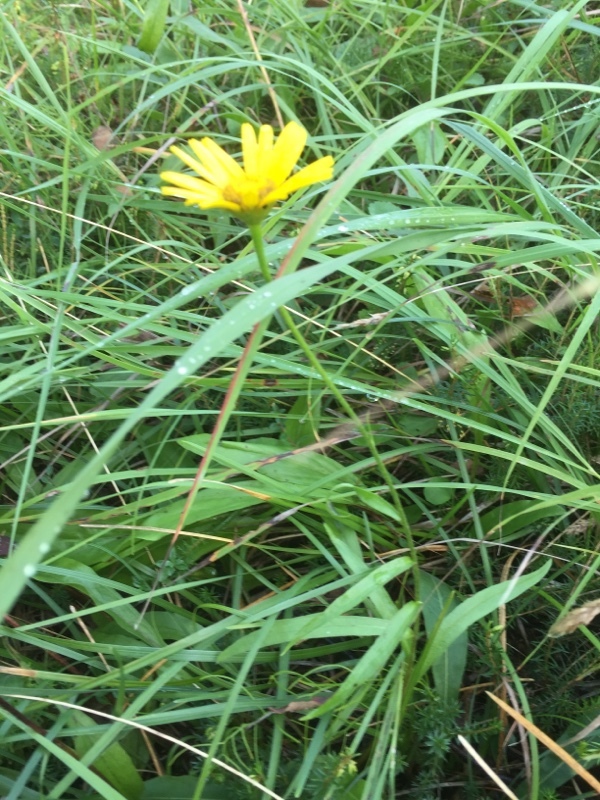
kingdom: Plantae
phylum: Tracheophyta
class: Magnoliopsida
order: Asterales
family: Asteraceae
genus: Buphthalmum
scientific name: Buphthalmum salicifolium
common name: Willow-leaved yellow-oxeye
